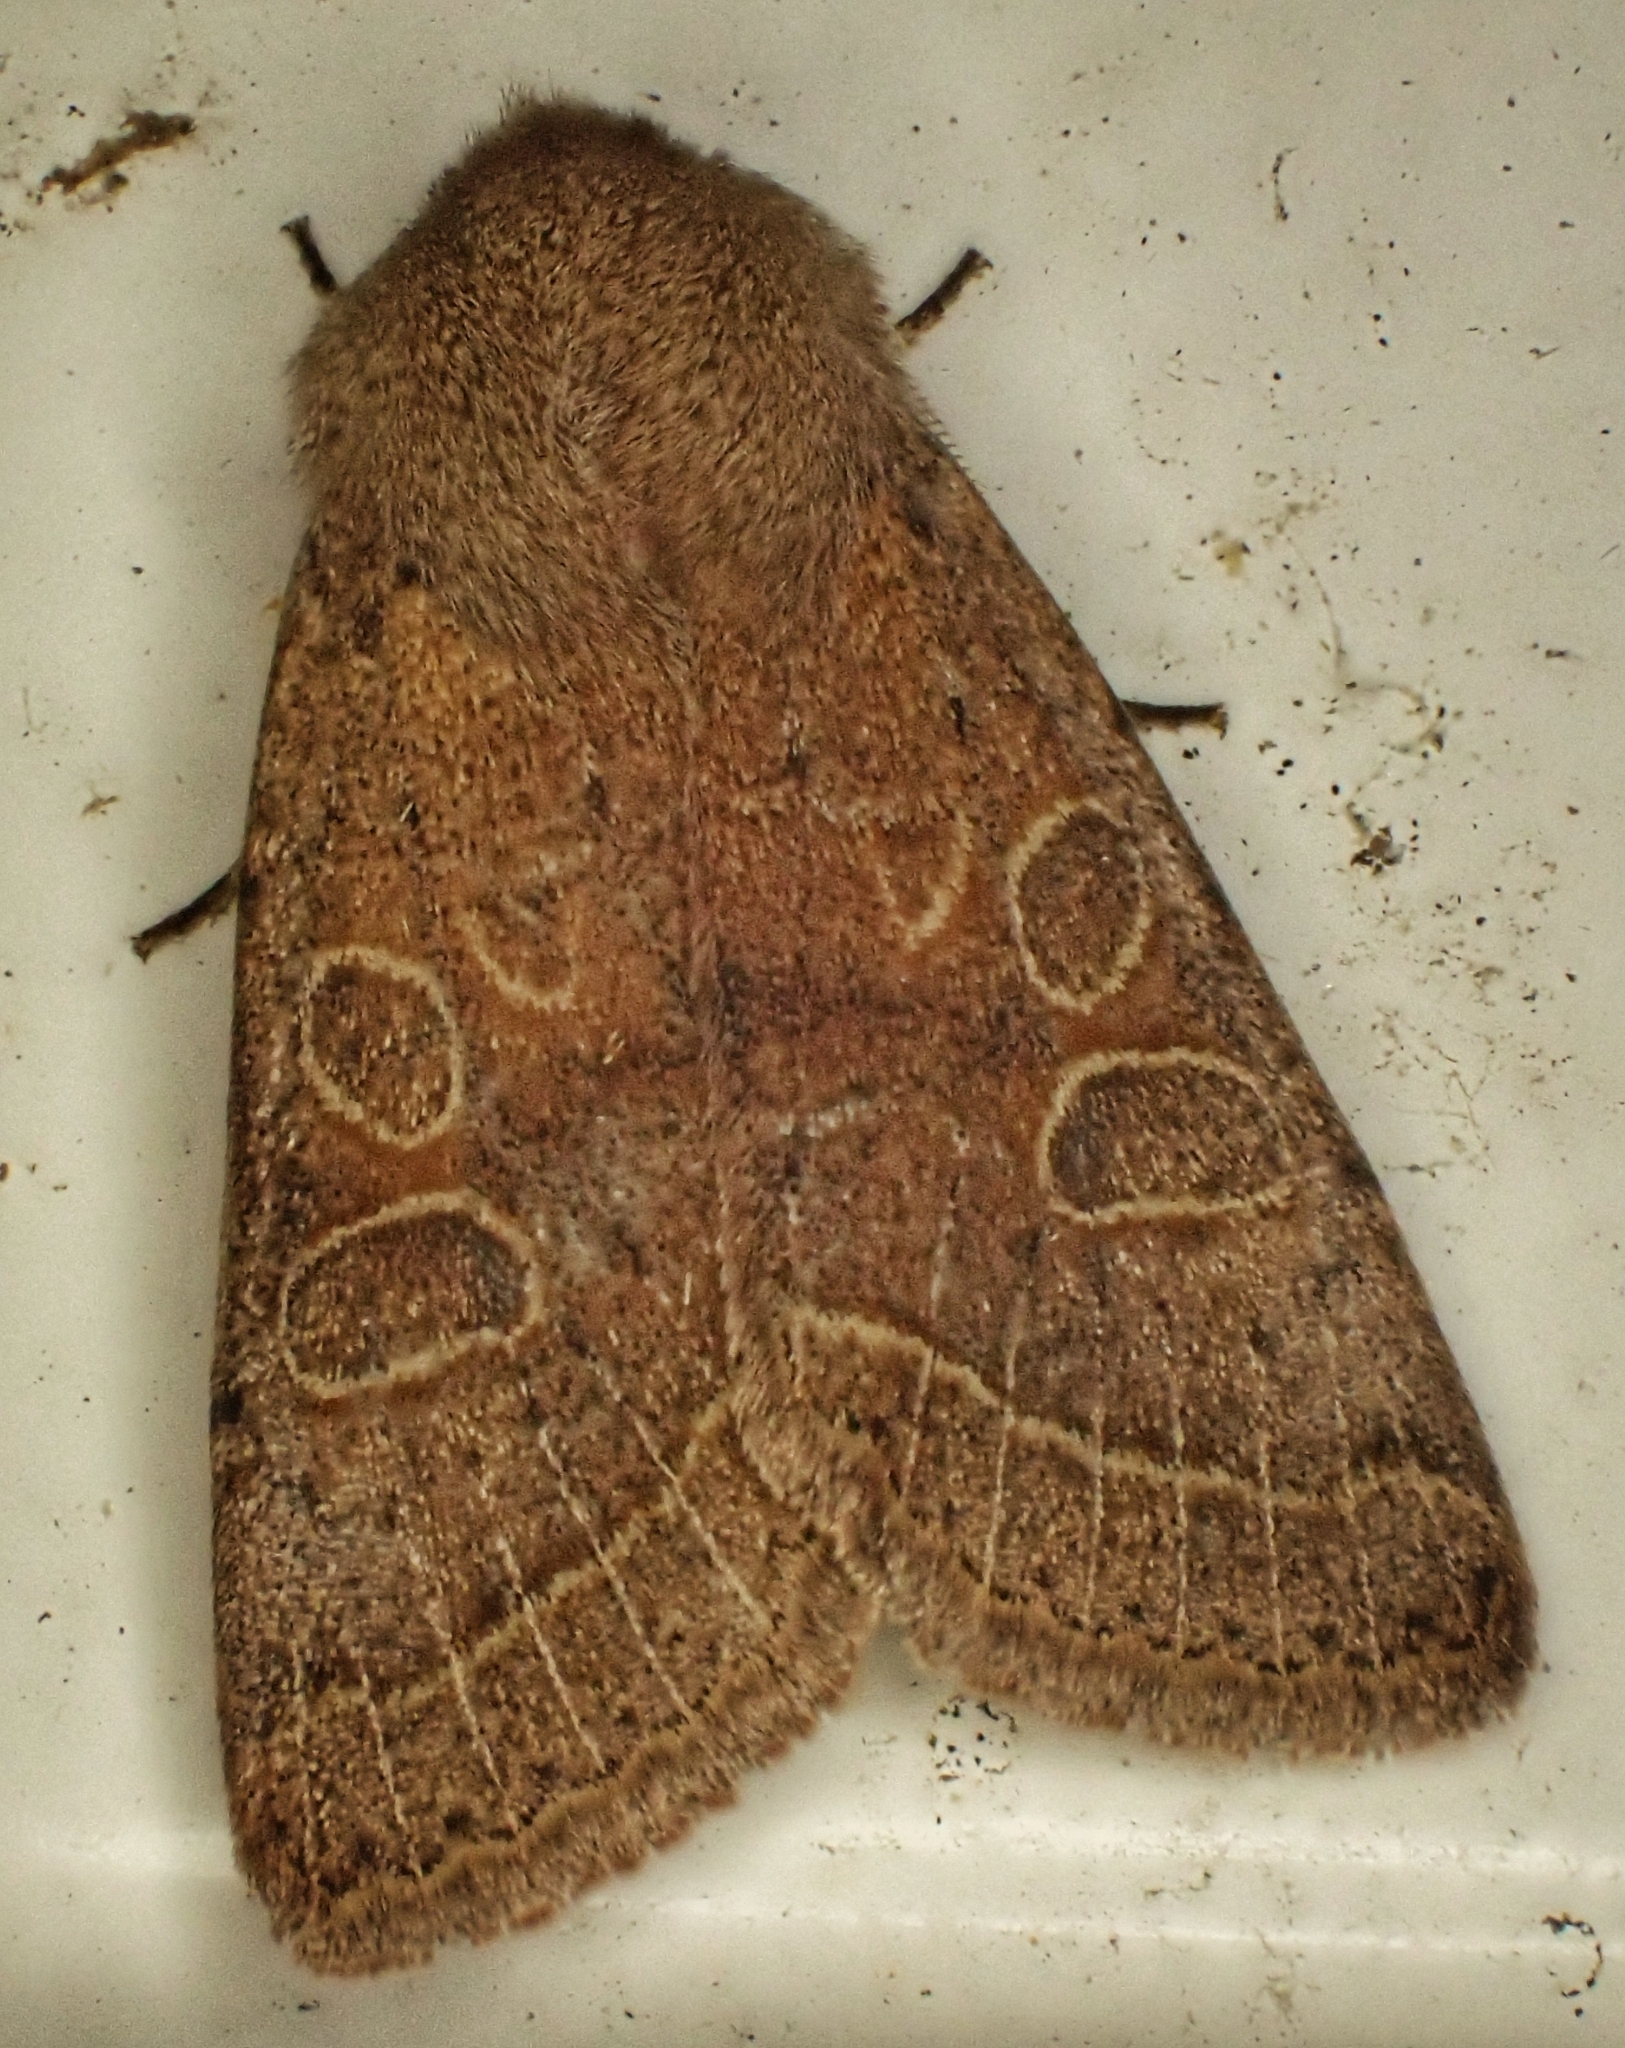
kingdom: Animalia
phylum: Arthropoda
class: Insecta
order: Lepidoptera
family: Noctuidae
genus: Orthosia
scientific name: Orthosia cerasi
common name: Common quaker
